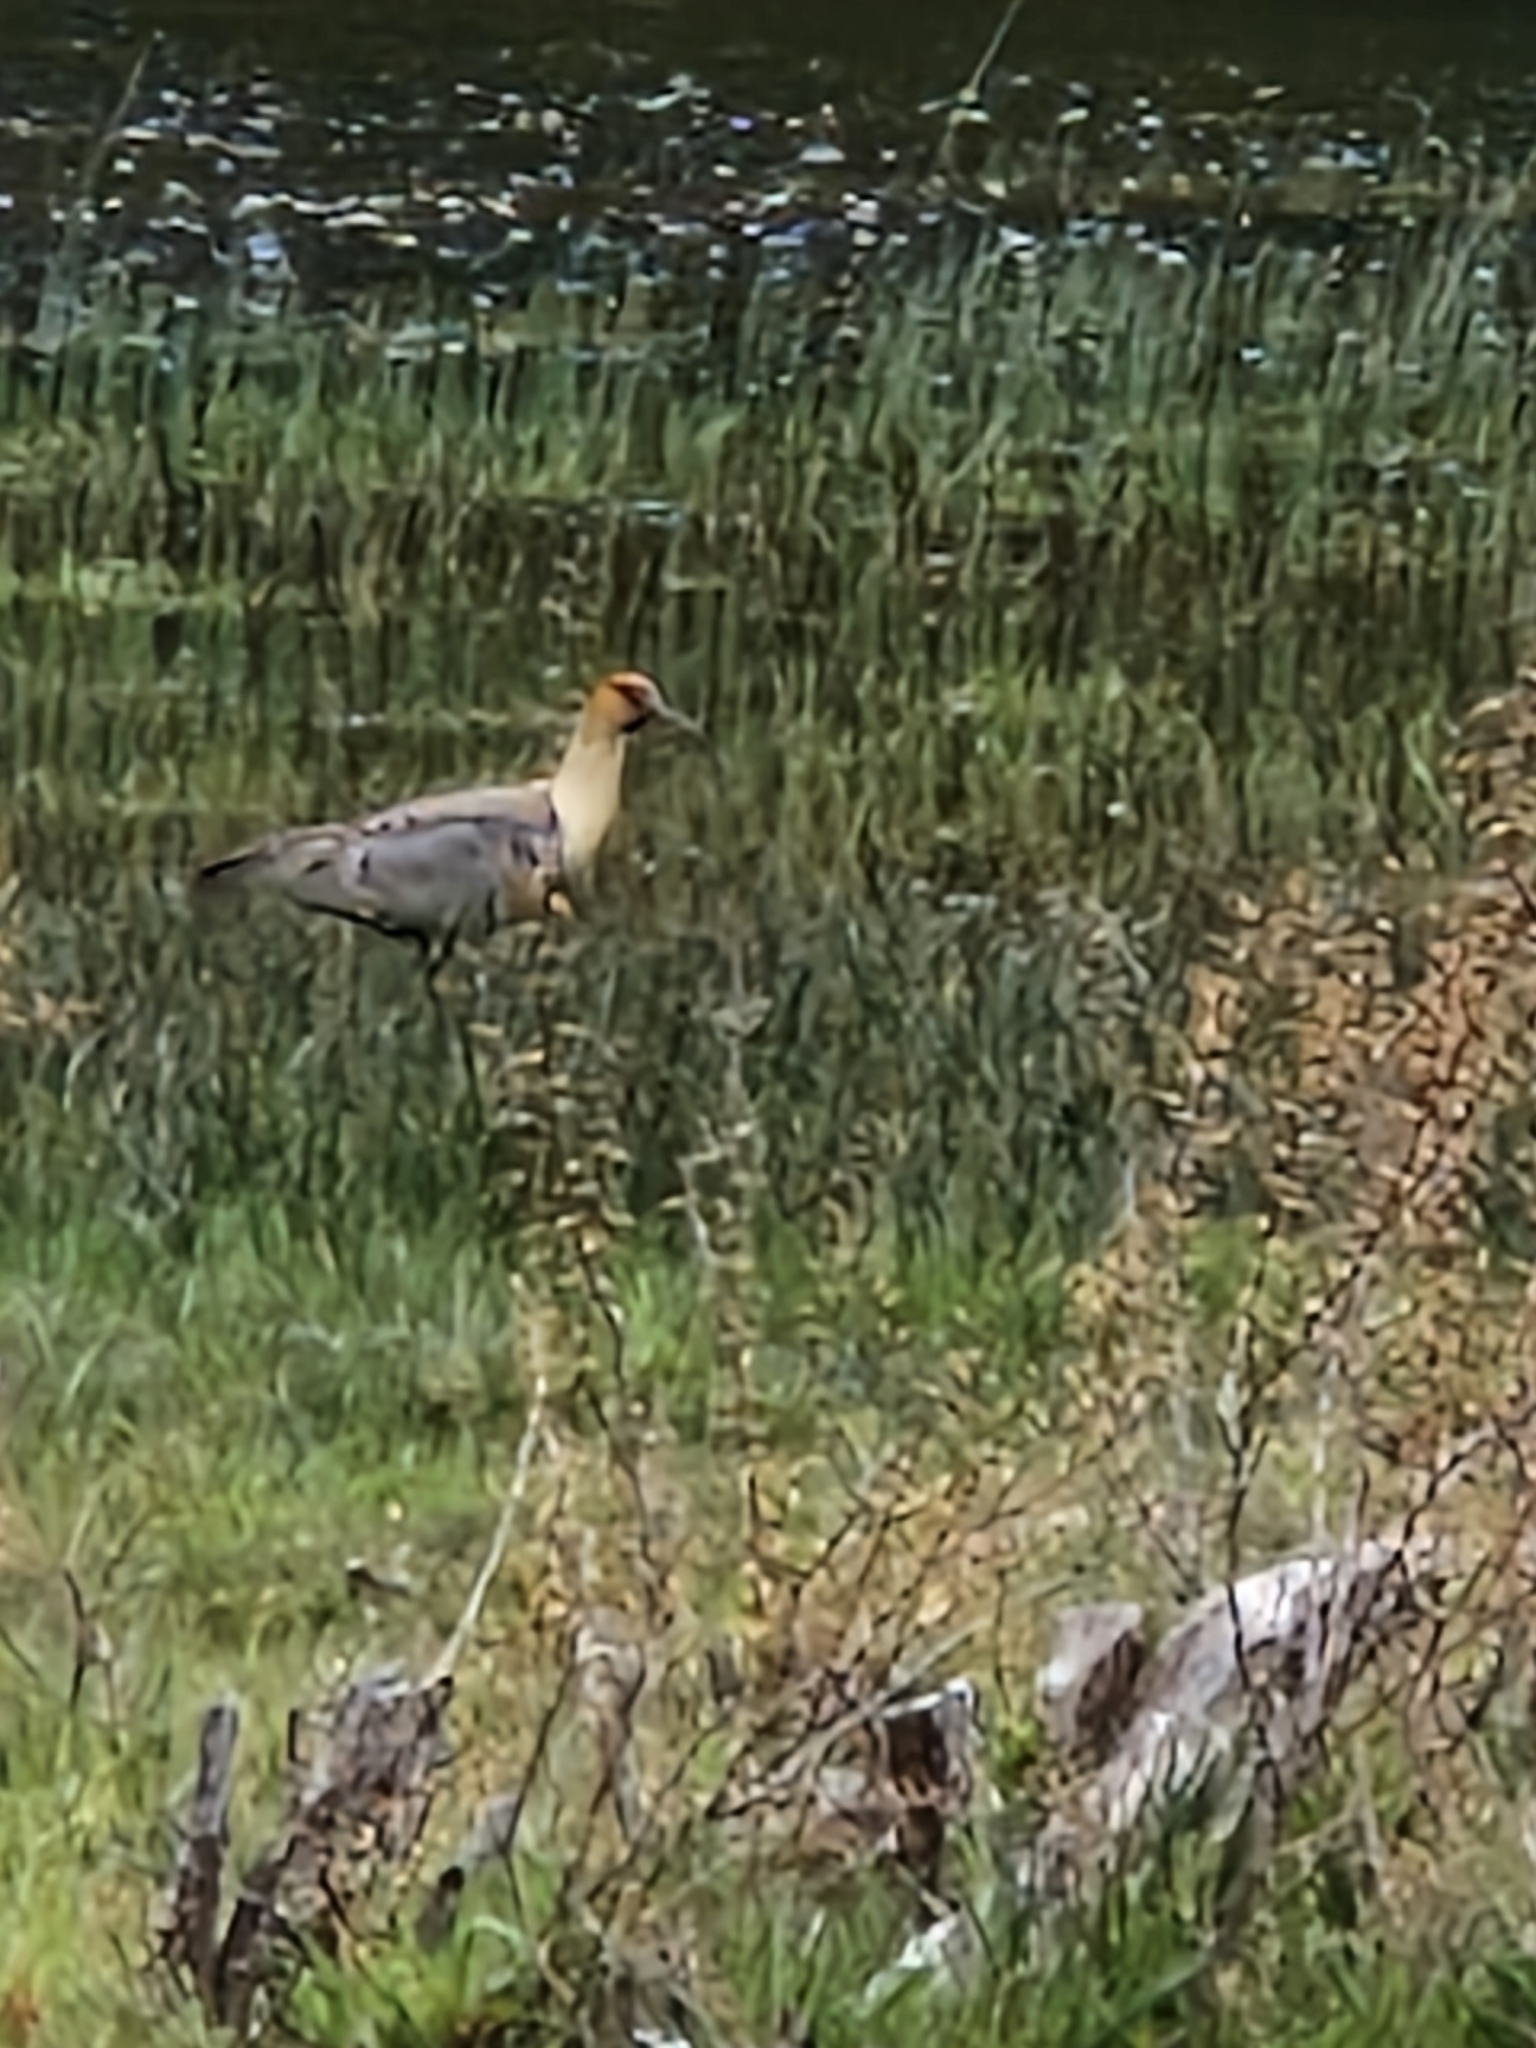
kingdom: Animalia
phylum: Chordata
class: Aves
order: Pelecaniformes
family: Threskiornithidae
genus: Theristicus
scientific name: Theristicus melanopis
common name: Black-faced ibis
